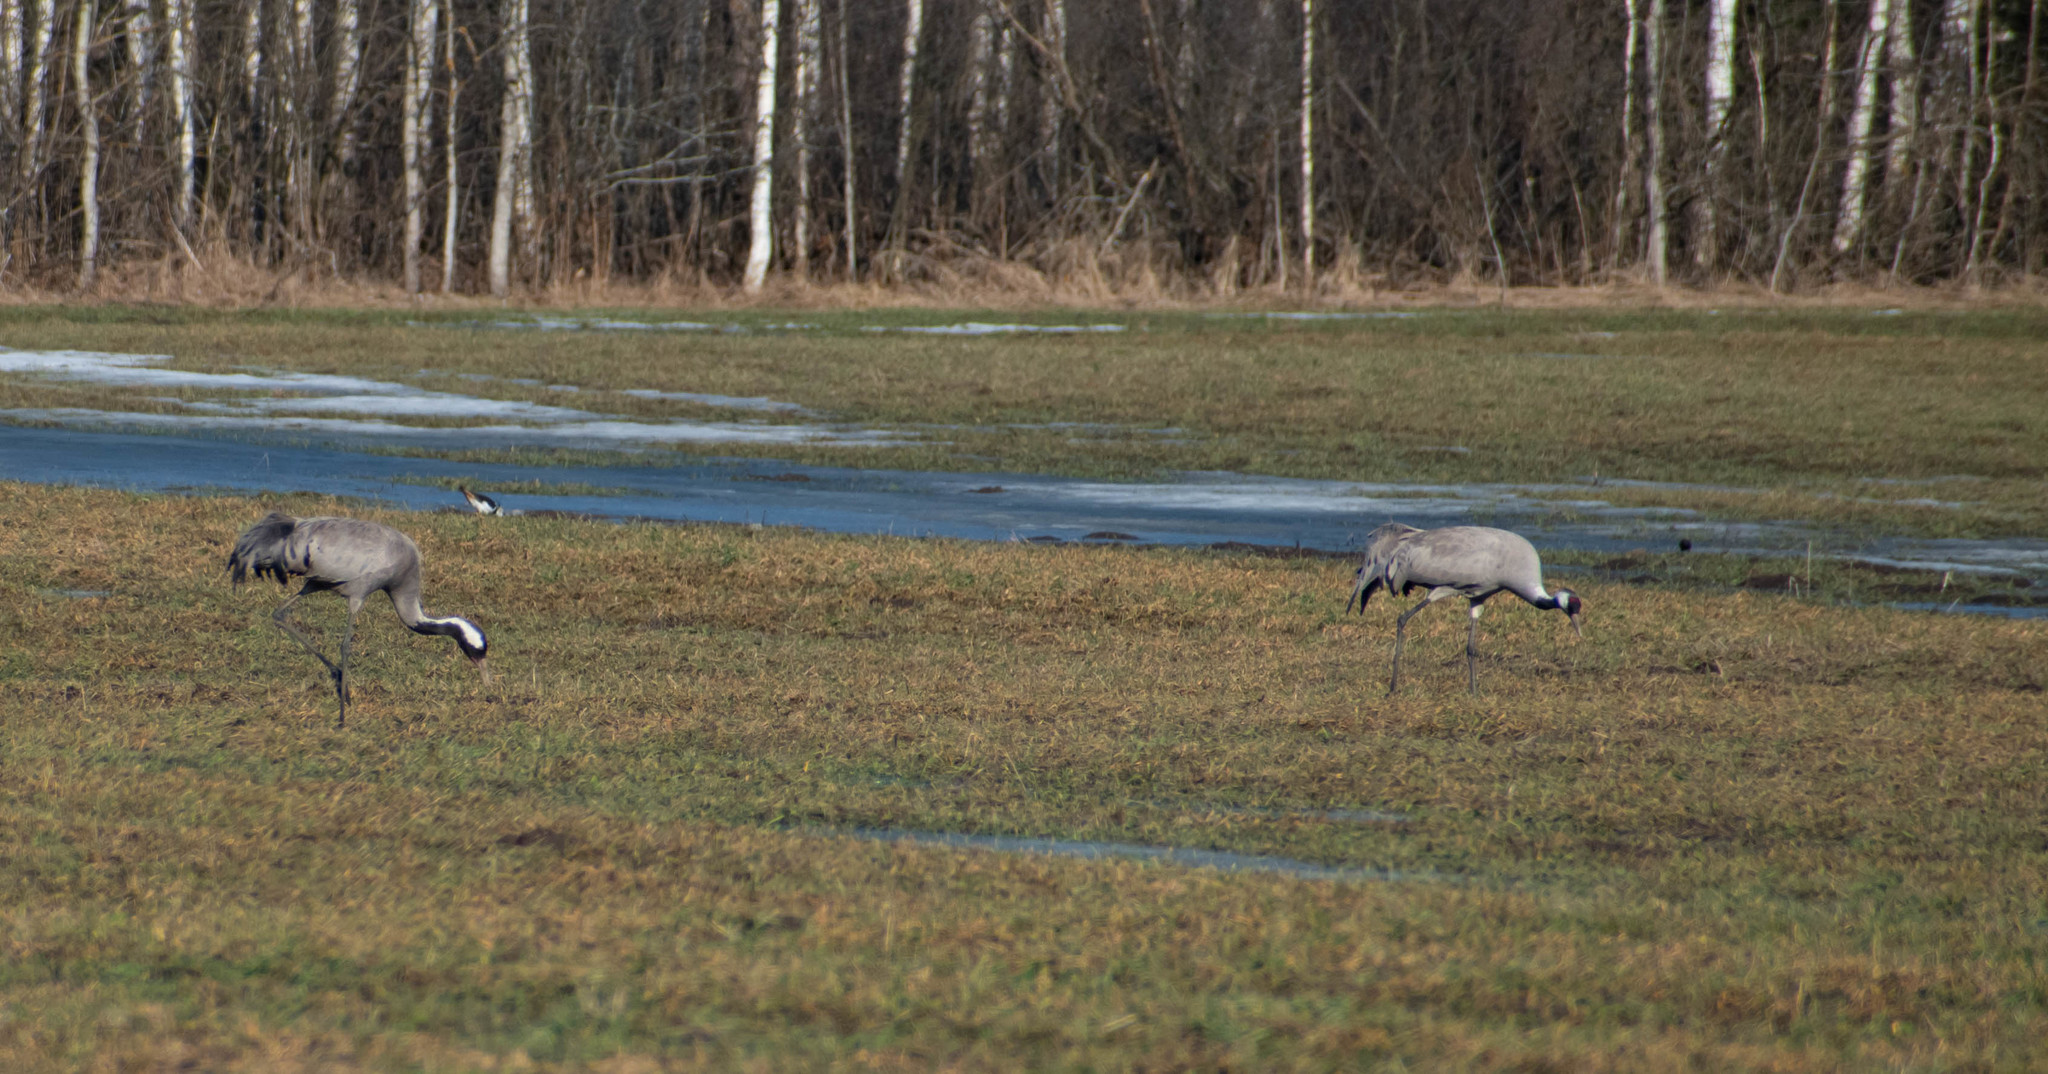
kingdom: Animalia
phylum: Chordata
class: Aves
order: Gruiformes
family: Gruidae
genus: Grus
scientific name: Grus grus
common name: Common crane
